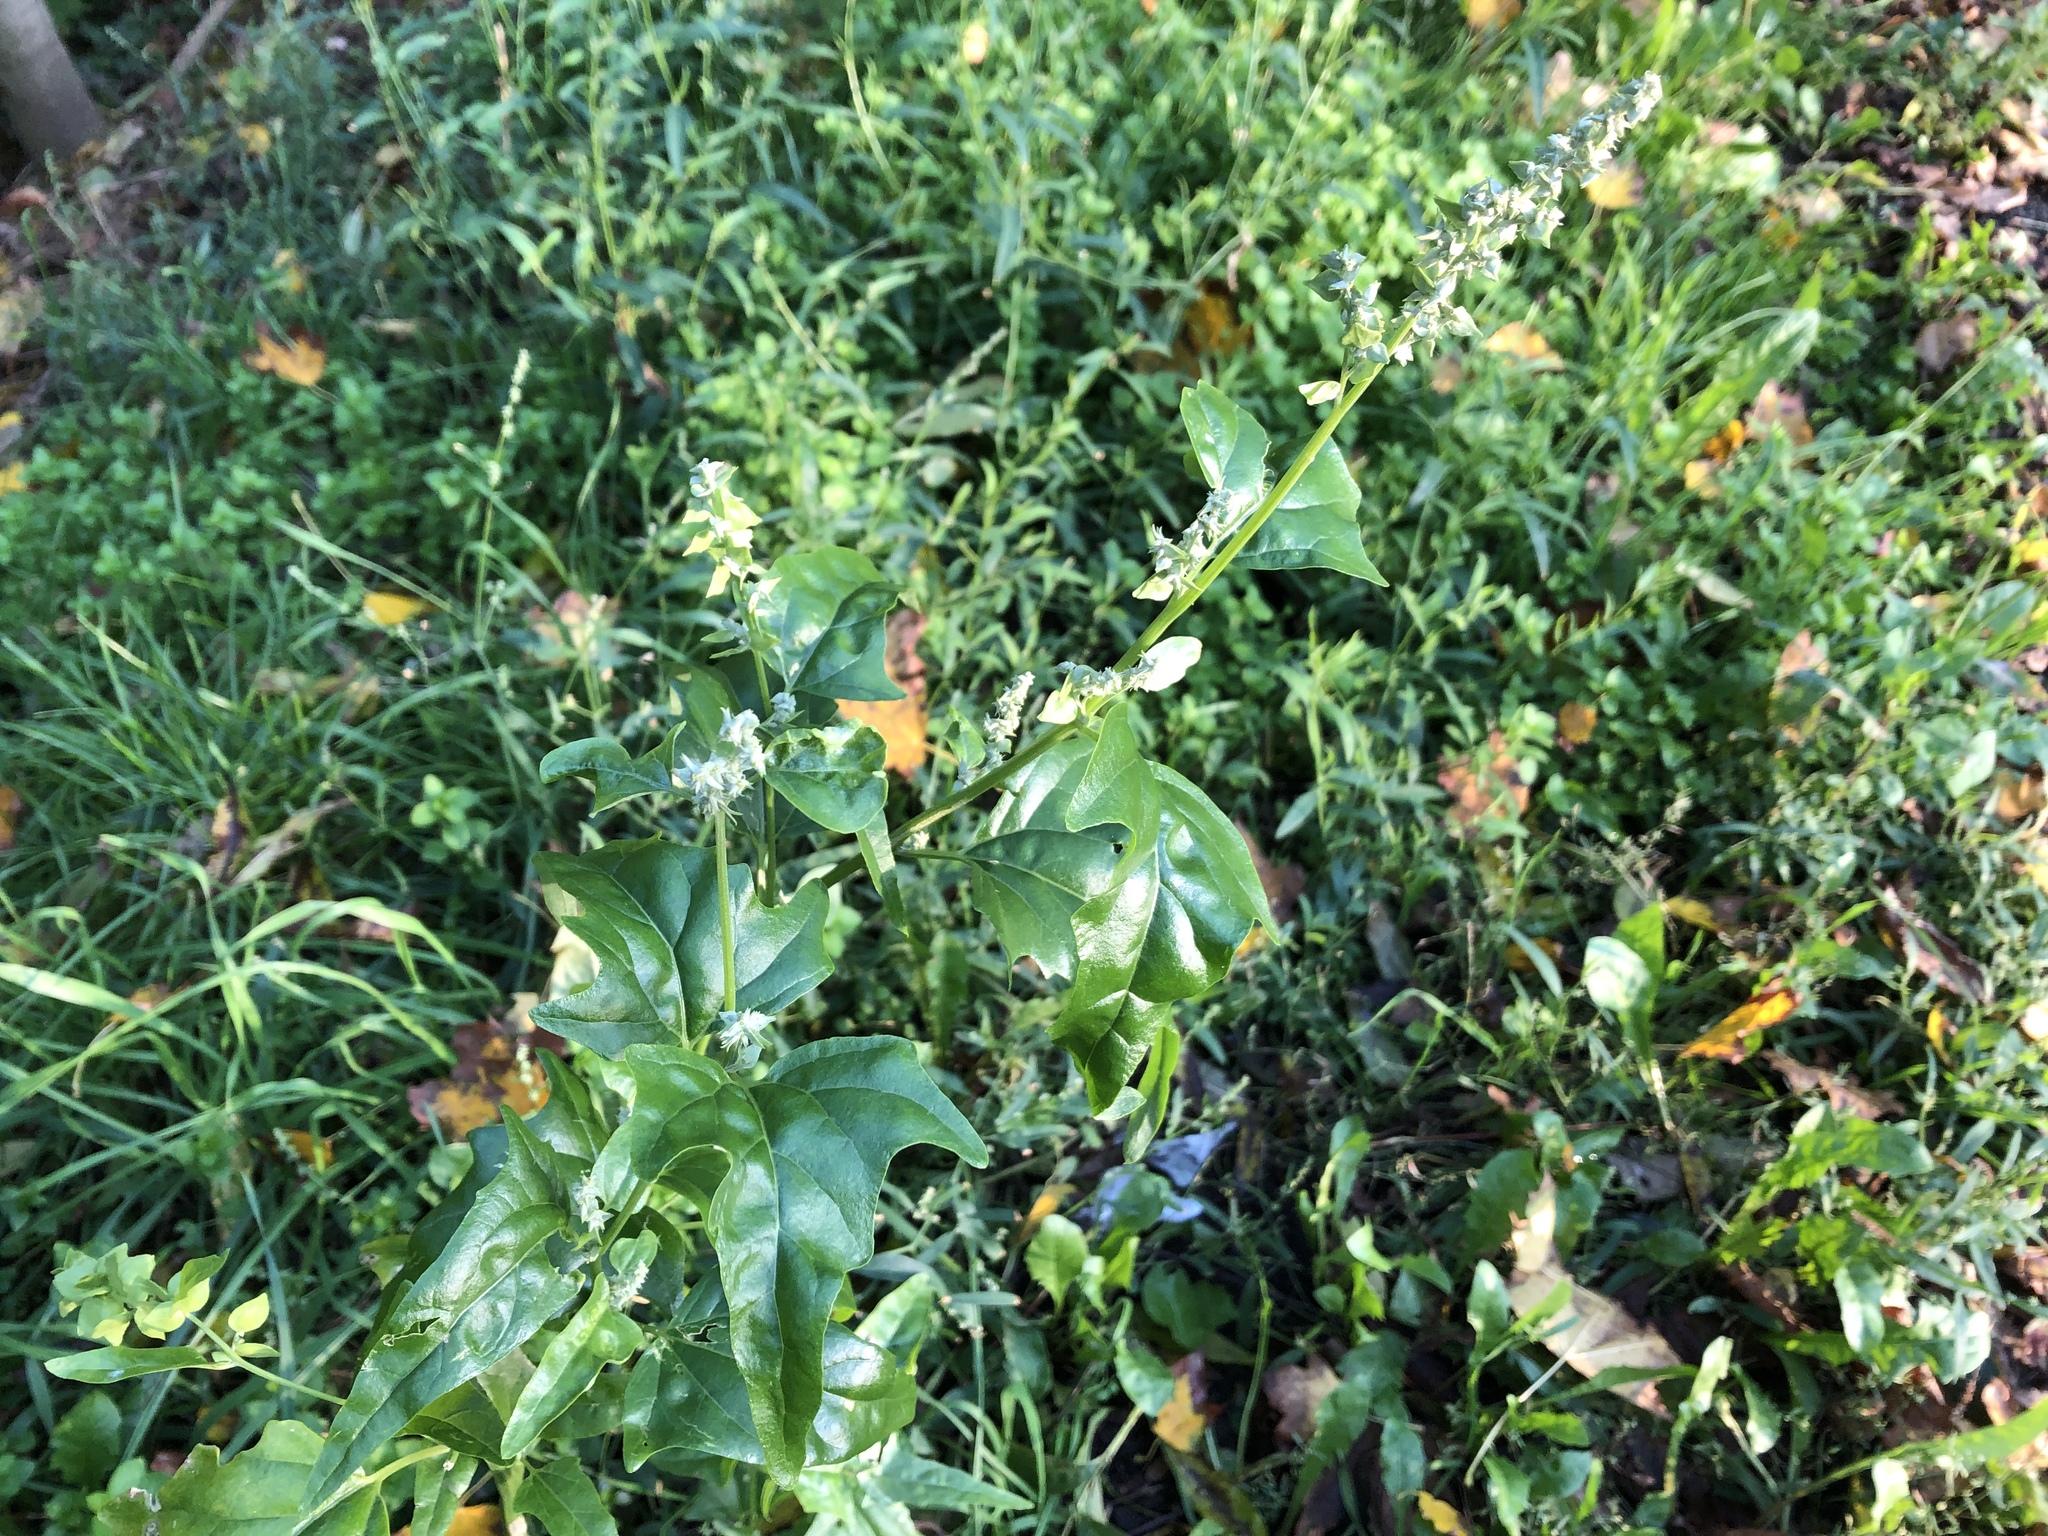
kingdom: Plantae
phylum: Tracheophyta
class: Magnoliopsida
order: Caryophyllales
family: Amaranthaceae
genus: Atriplex
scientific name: Atriplex sagittata
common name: Purple orache
